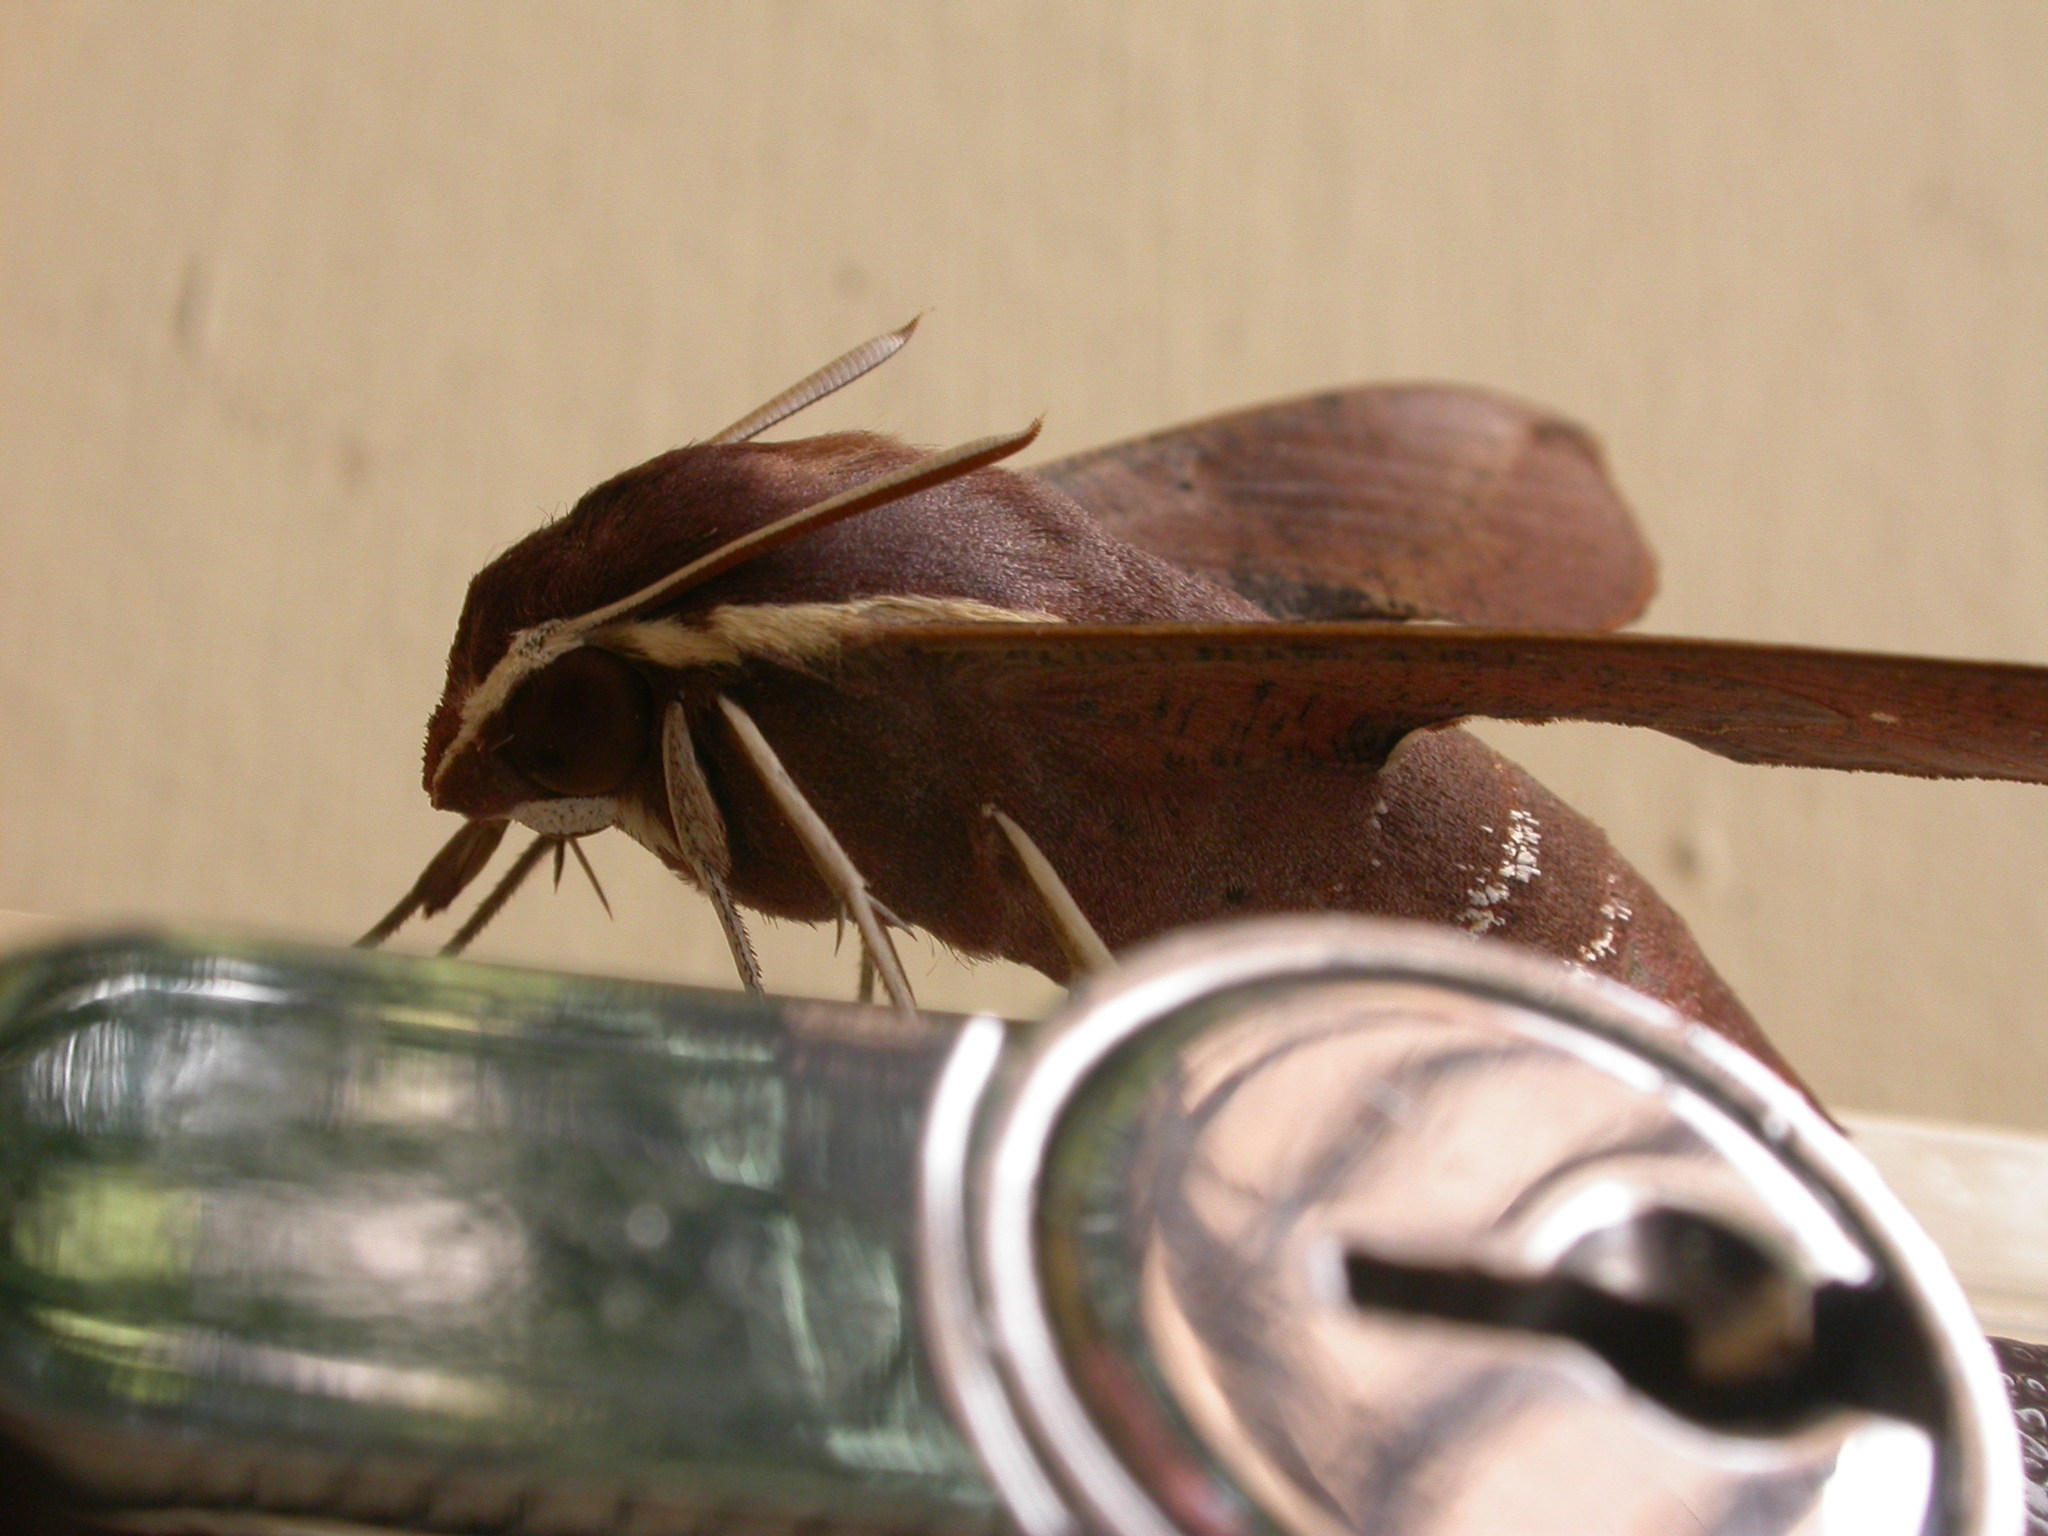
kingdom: Animalia
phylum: Arthropoda
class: Insecta
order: Lepidoptera
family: Sphingidae
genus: Hippotion
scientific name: Hippotion scrofa
